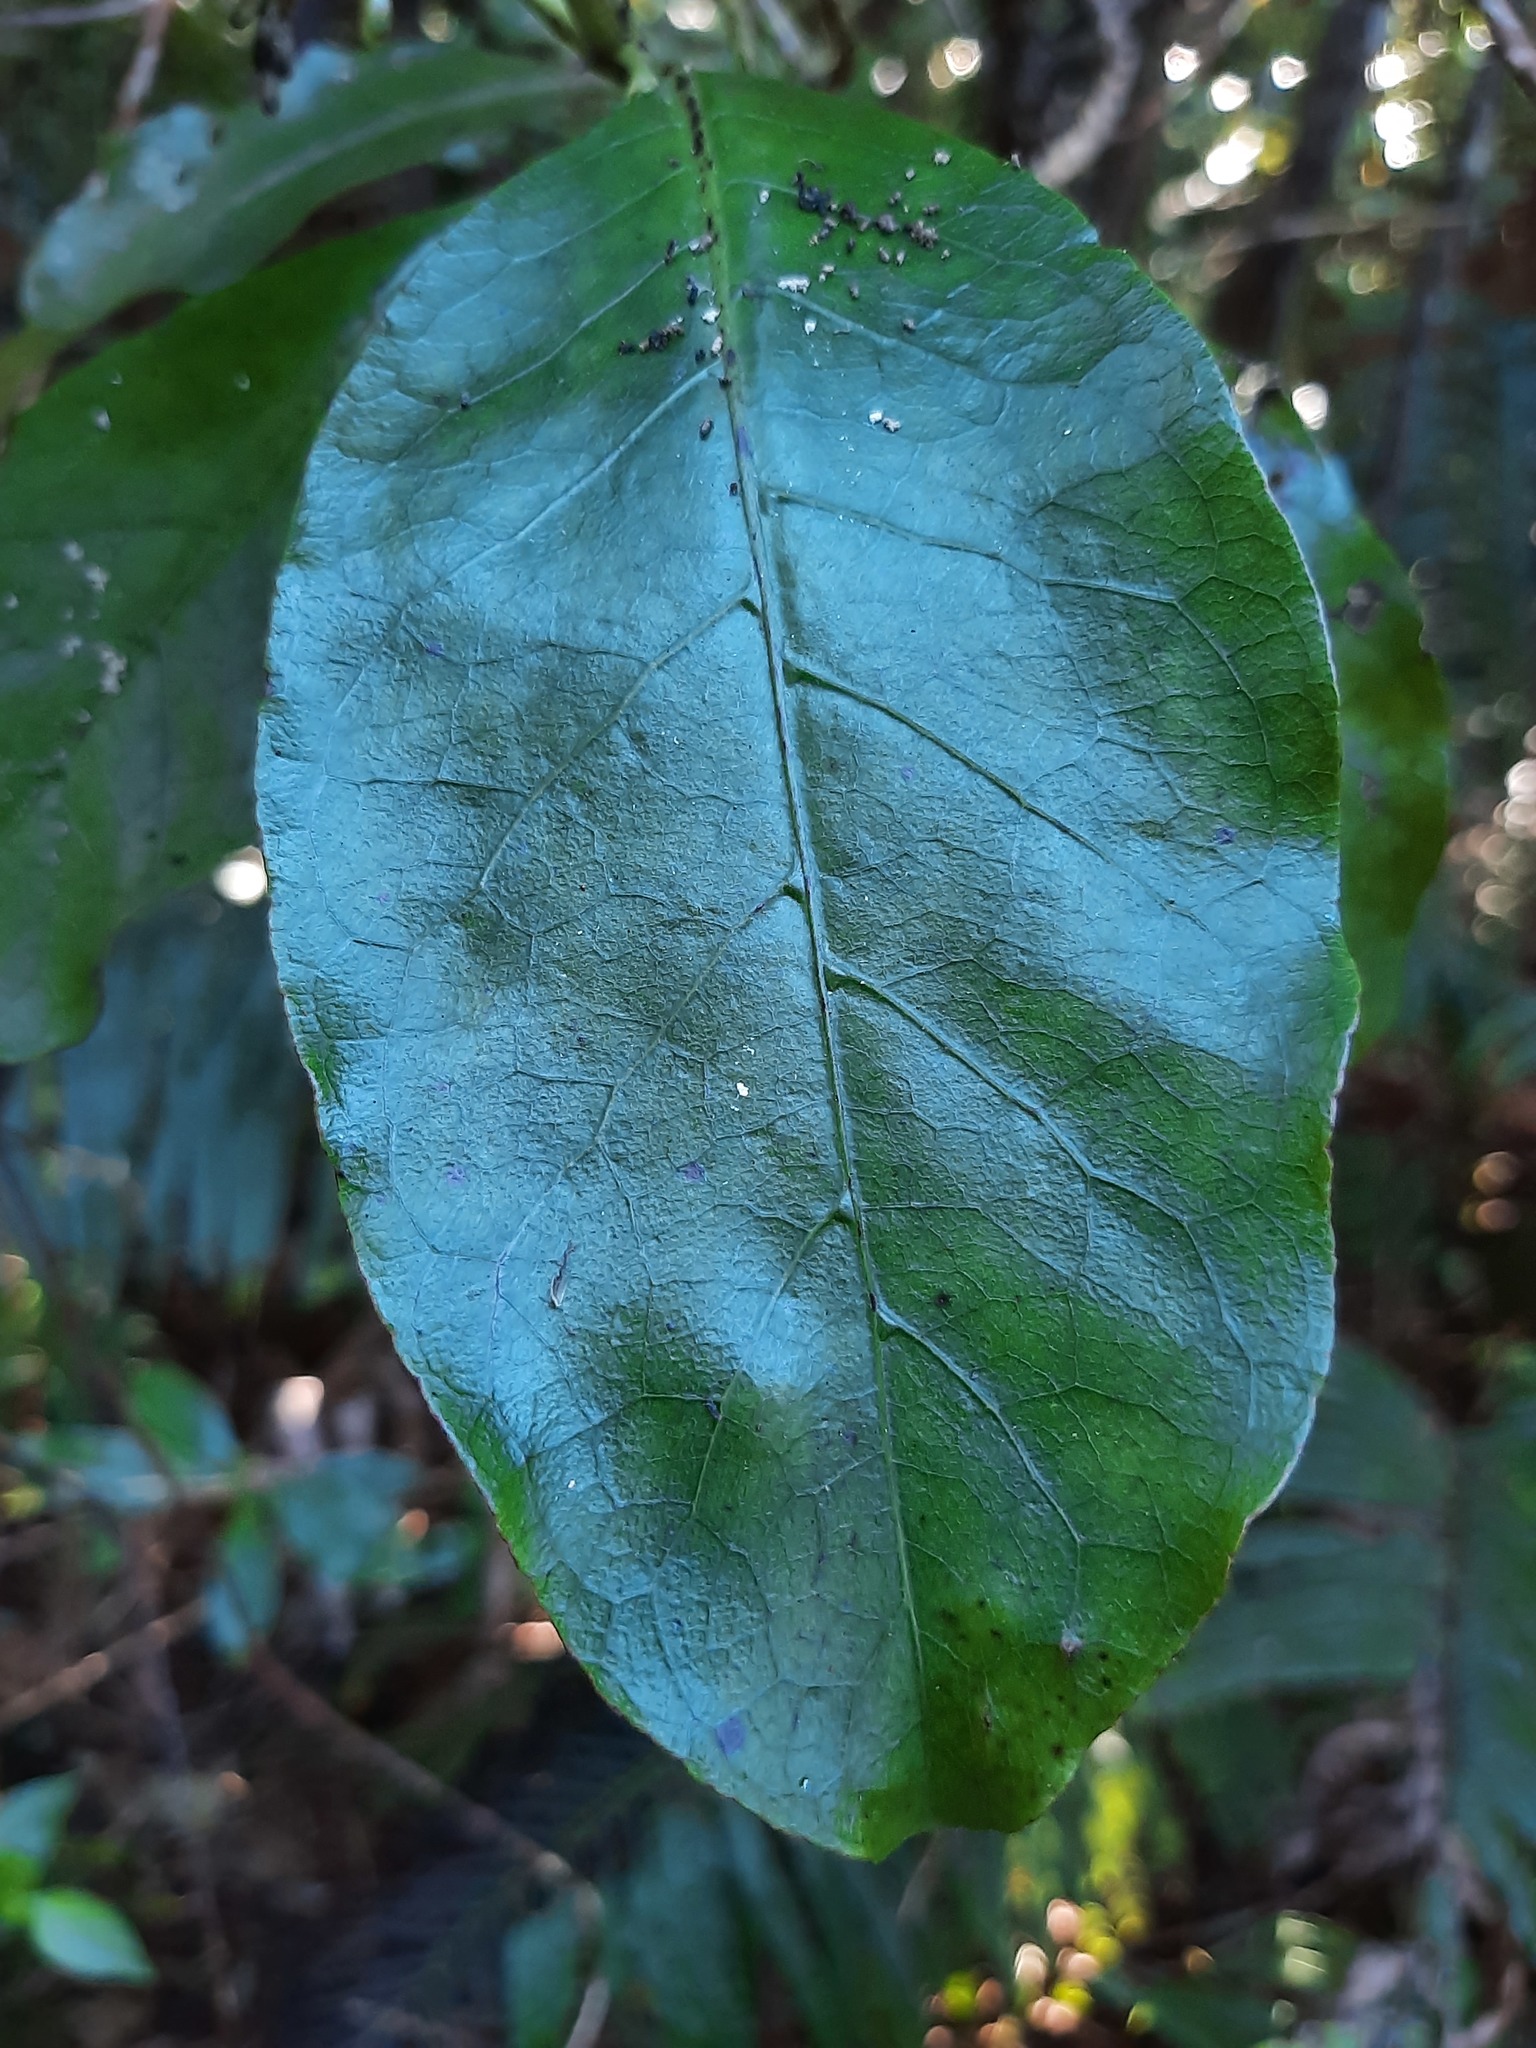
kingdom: Plantae
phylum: Tracheophyta
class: Magnoliopsida
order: Gentianales
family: Rubiaceae
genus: Coprosma
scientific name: Coprosma autumnalis
